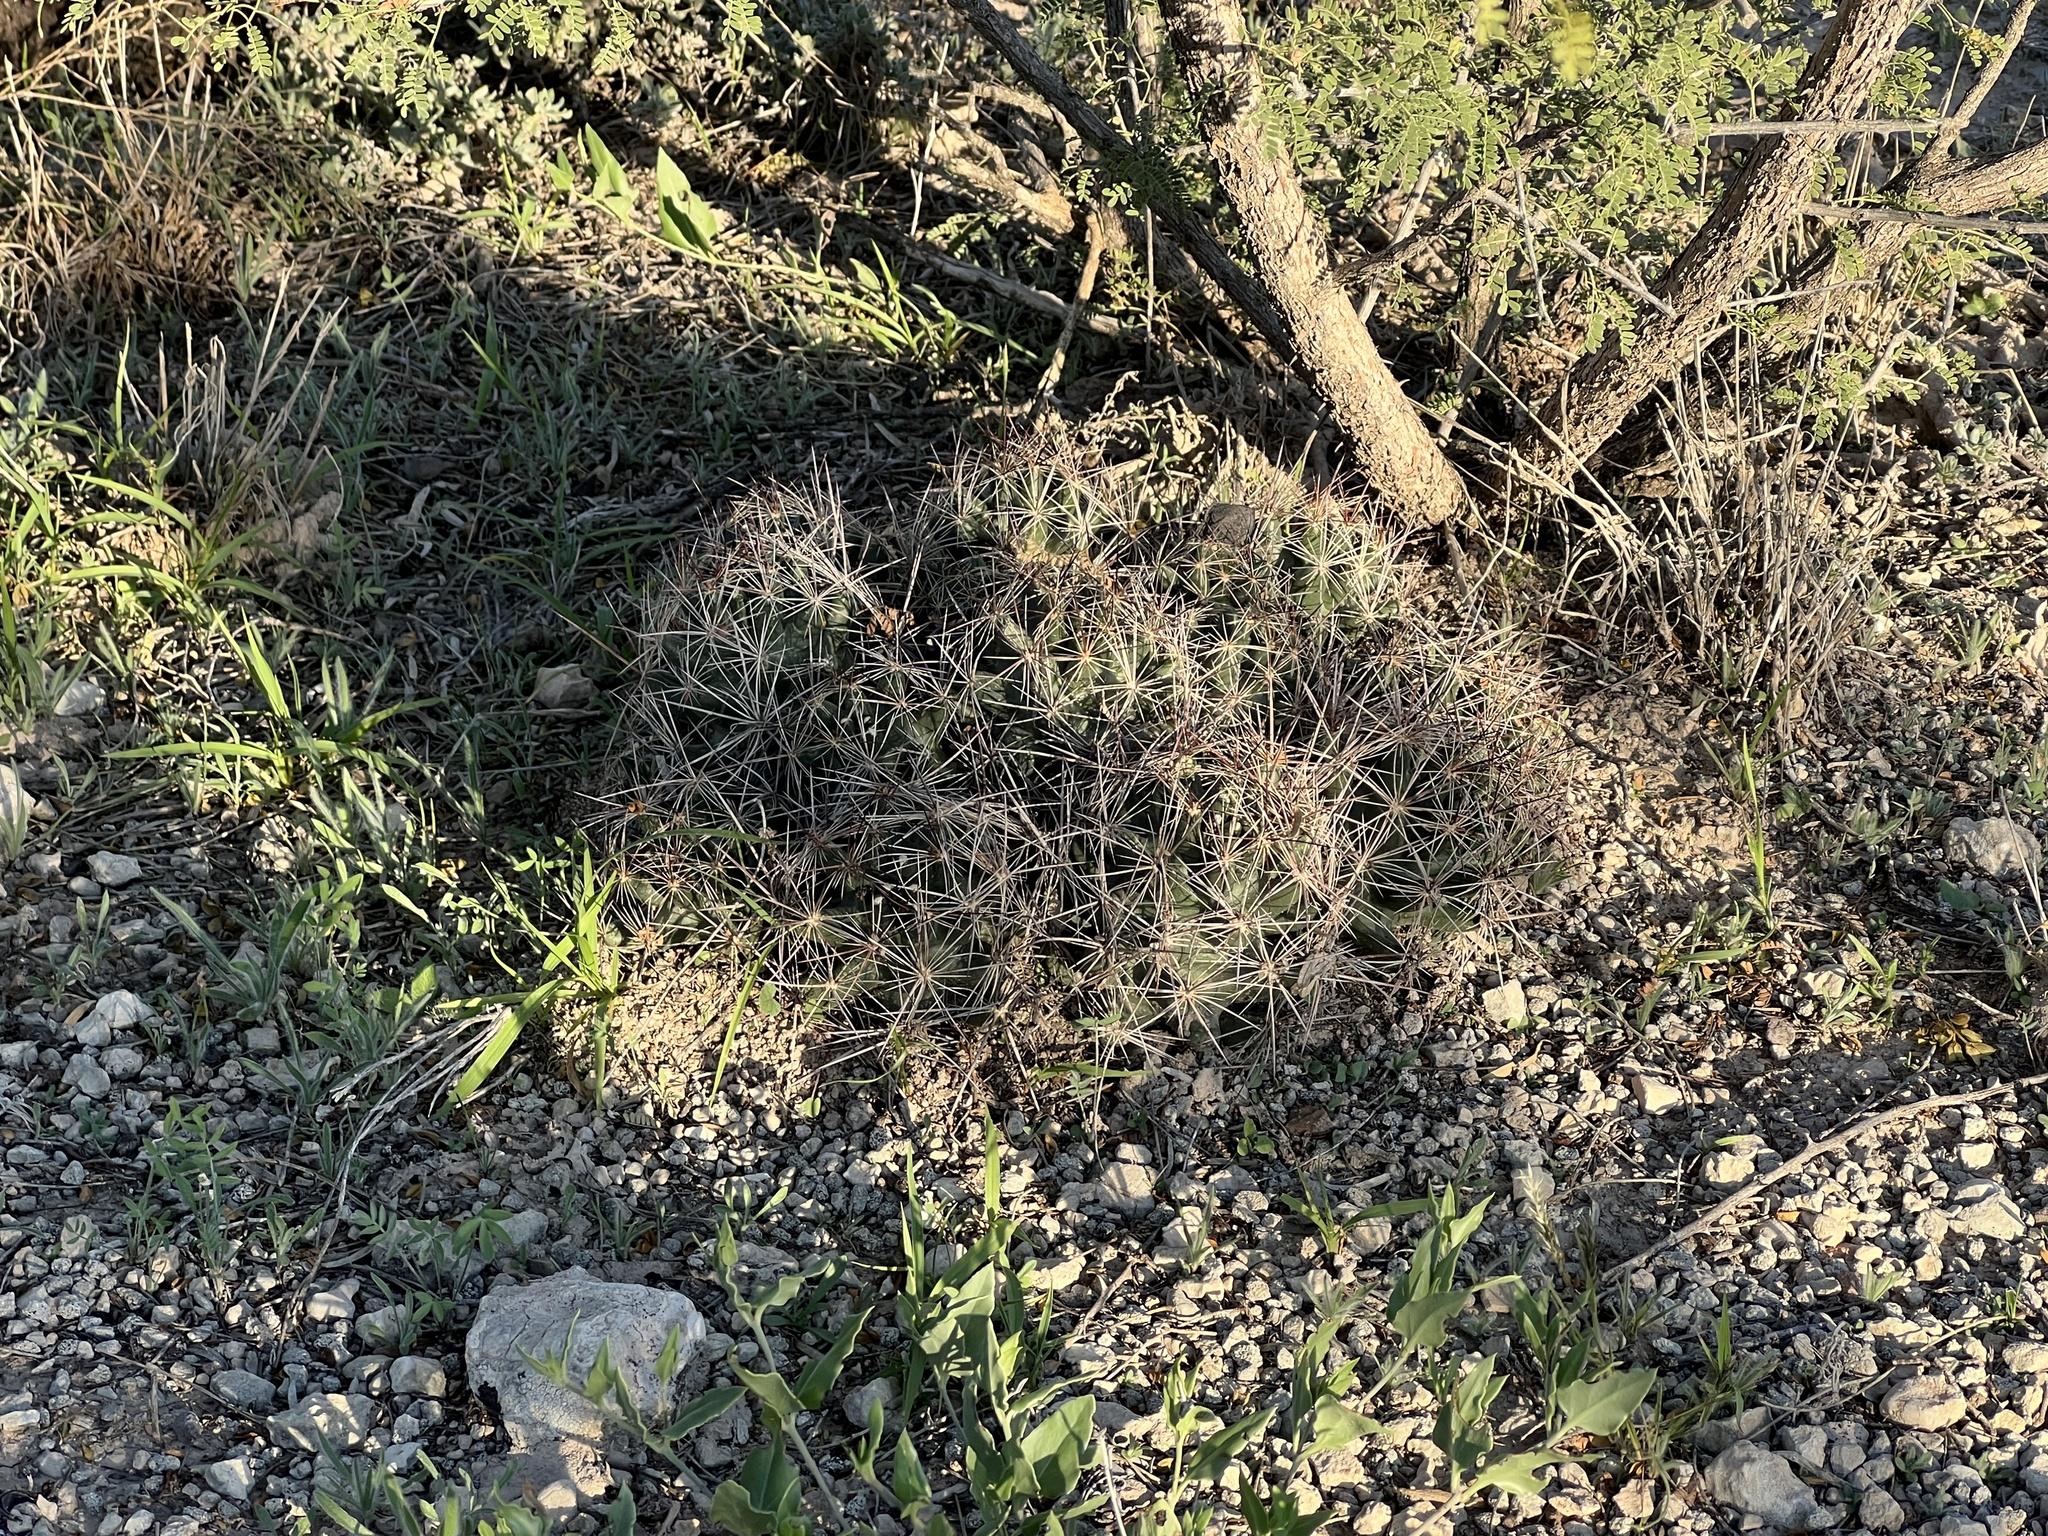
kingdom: Plantae
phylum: Tracheophyta
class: Magnoliopsida
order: Caryophyllales
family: Cactaceae
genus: Coryphantha
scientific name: Coryphantha macromeris
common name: Nipple beehive cactus
